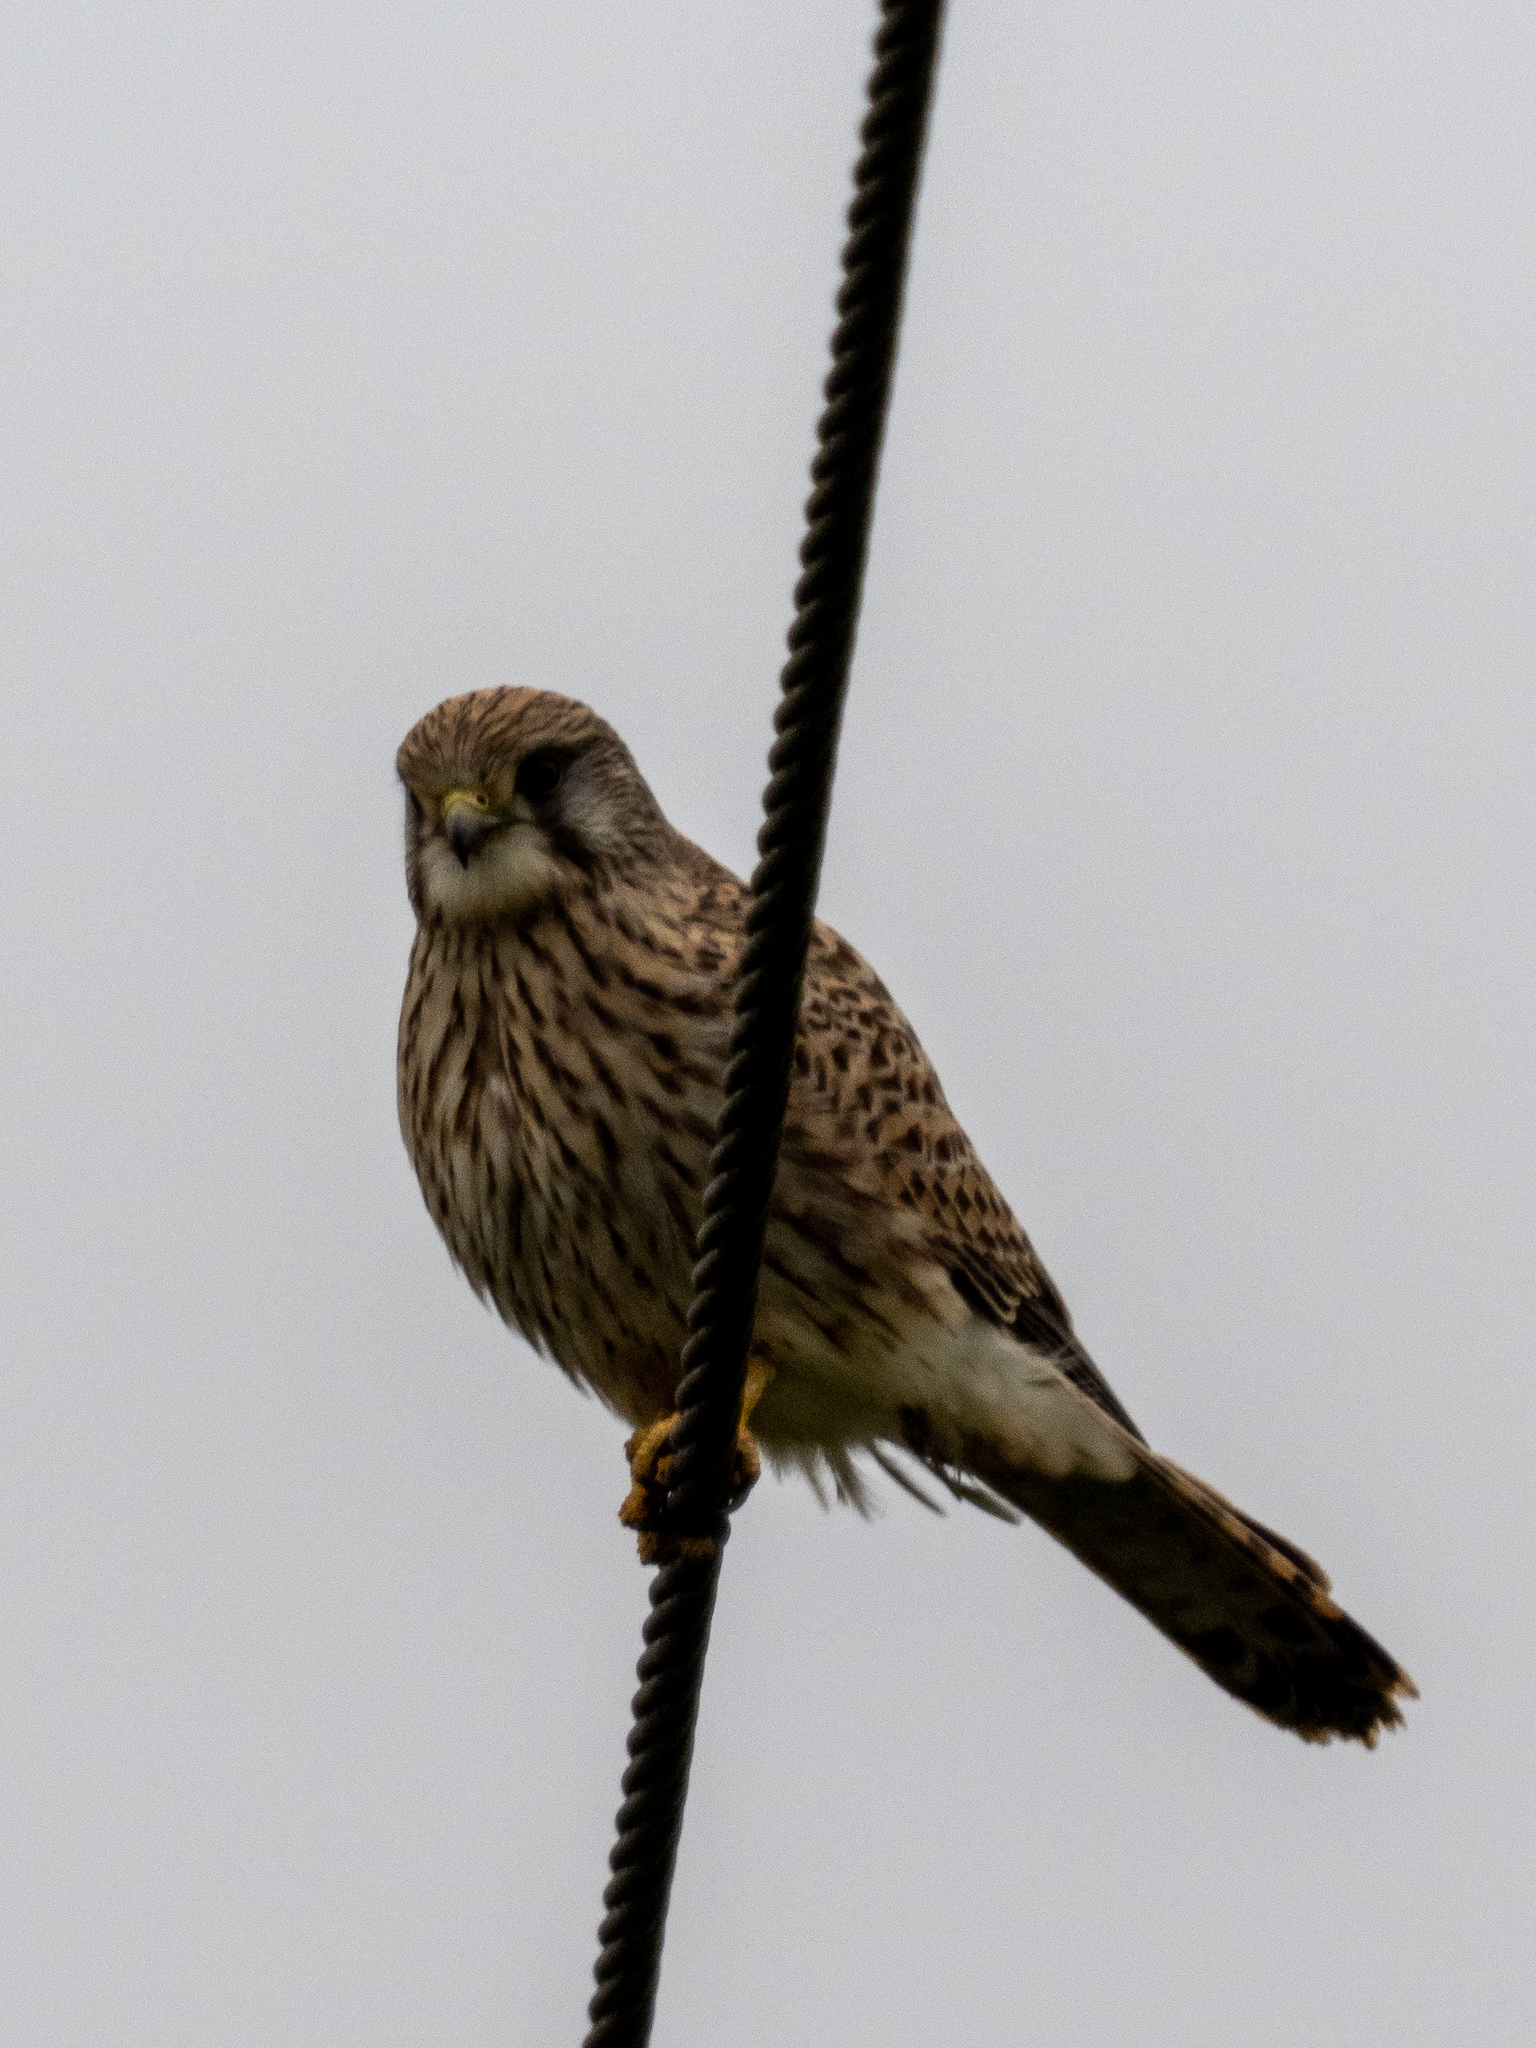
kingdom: Animalia
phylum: Chordata
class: Aves
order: Falconiformes
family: Falconidae
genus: Falco
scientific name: Falco tinnunculus
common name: Common kestrel
